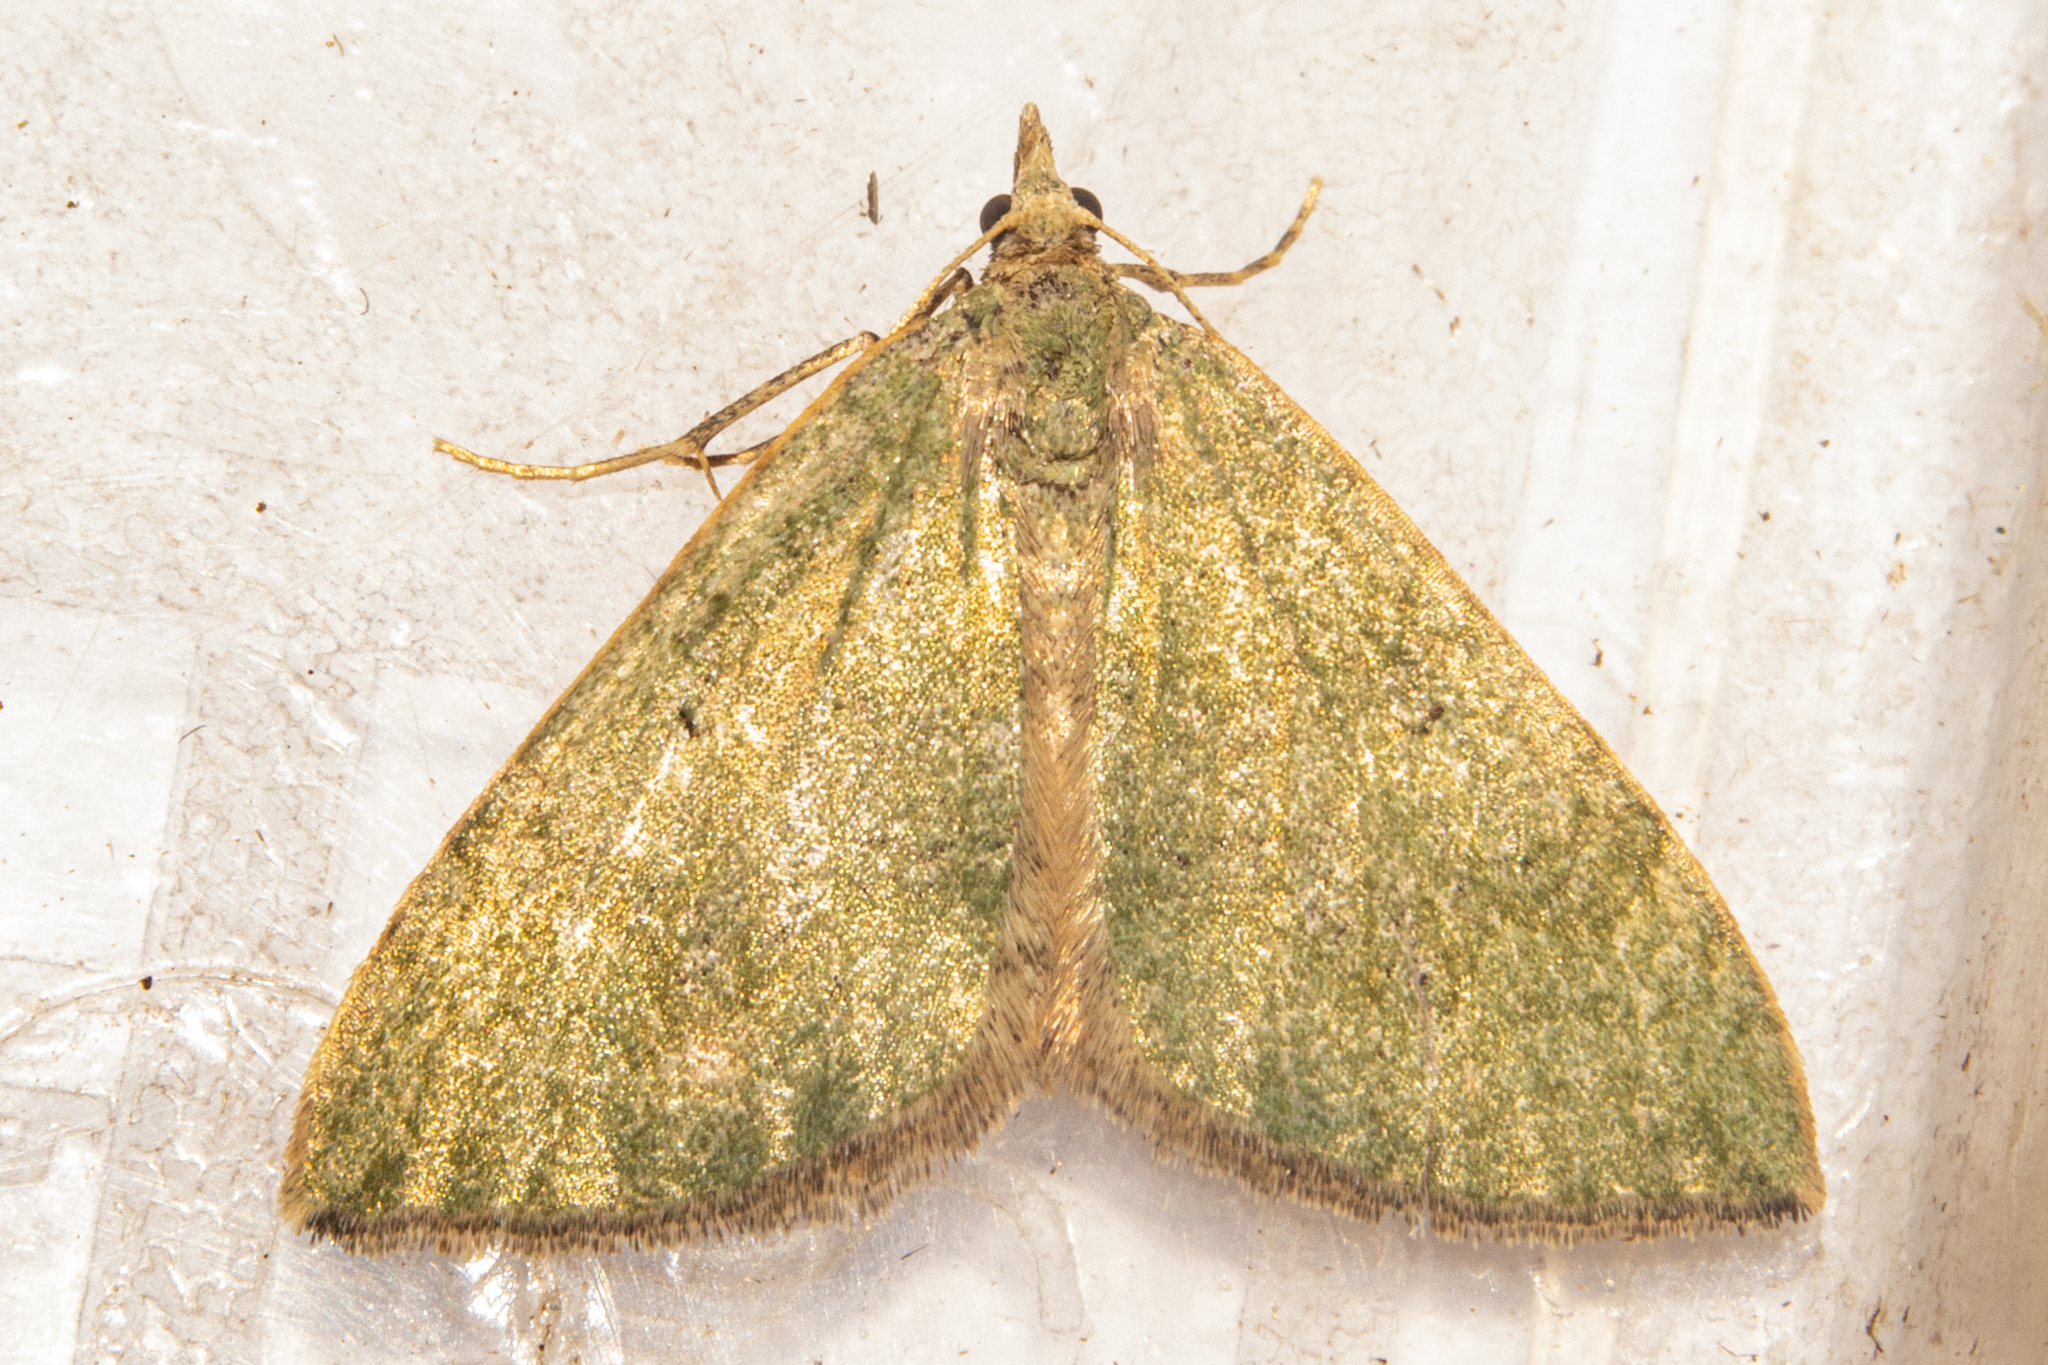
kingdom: Animalia
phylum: Arthropoda
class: Insecta
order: Lepidoptera
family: Geometridae
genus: Epyaxa
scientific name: Epyaxa rosearia
